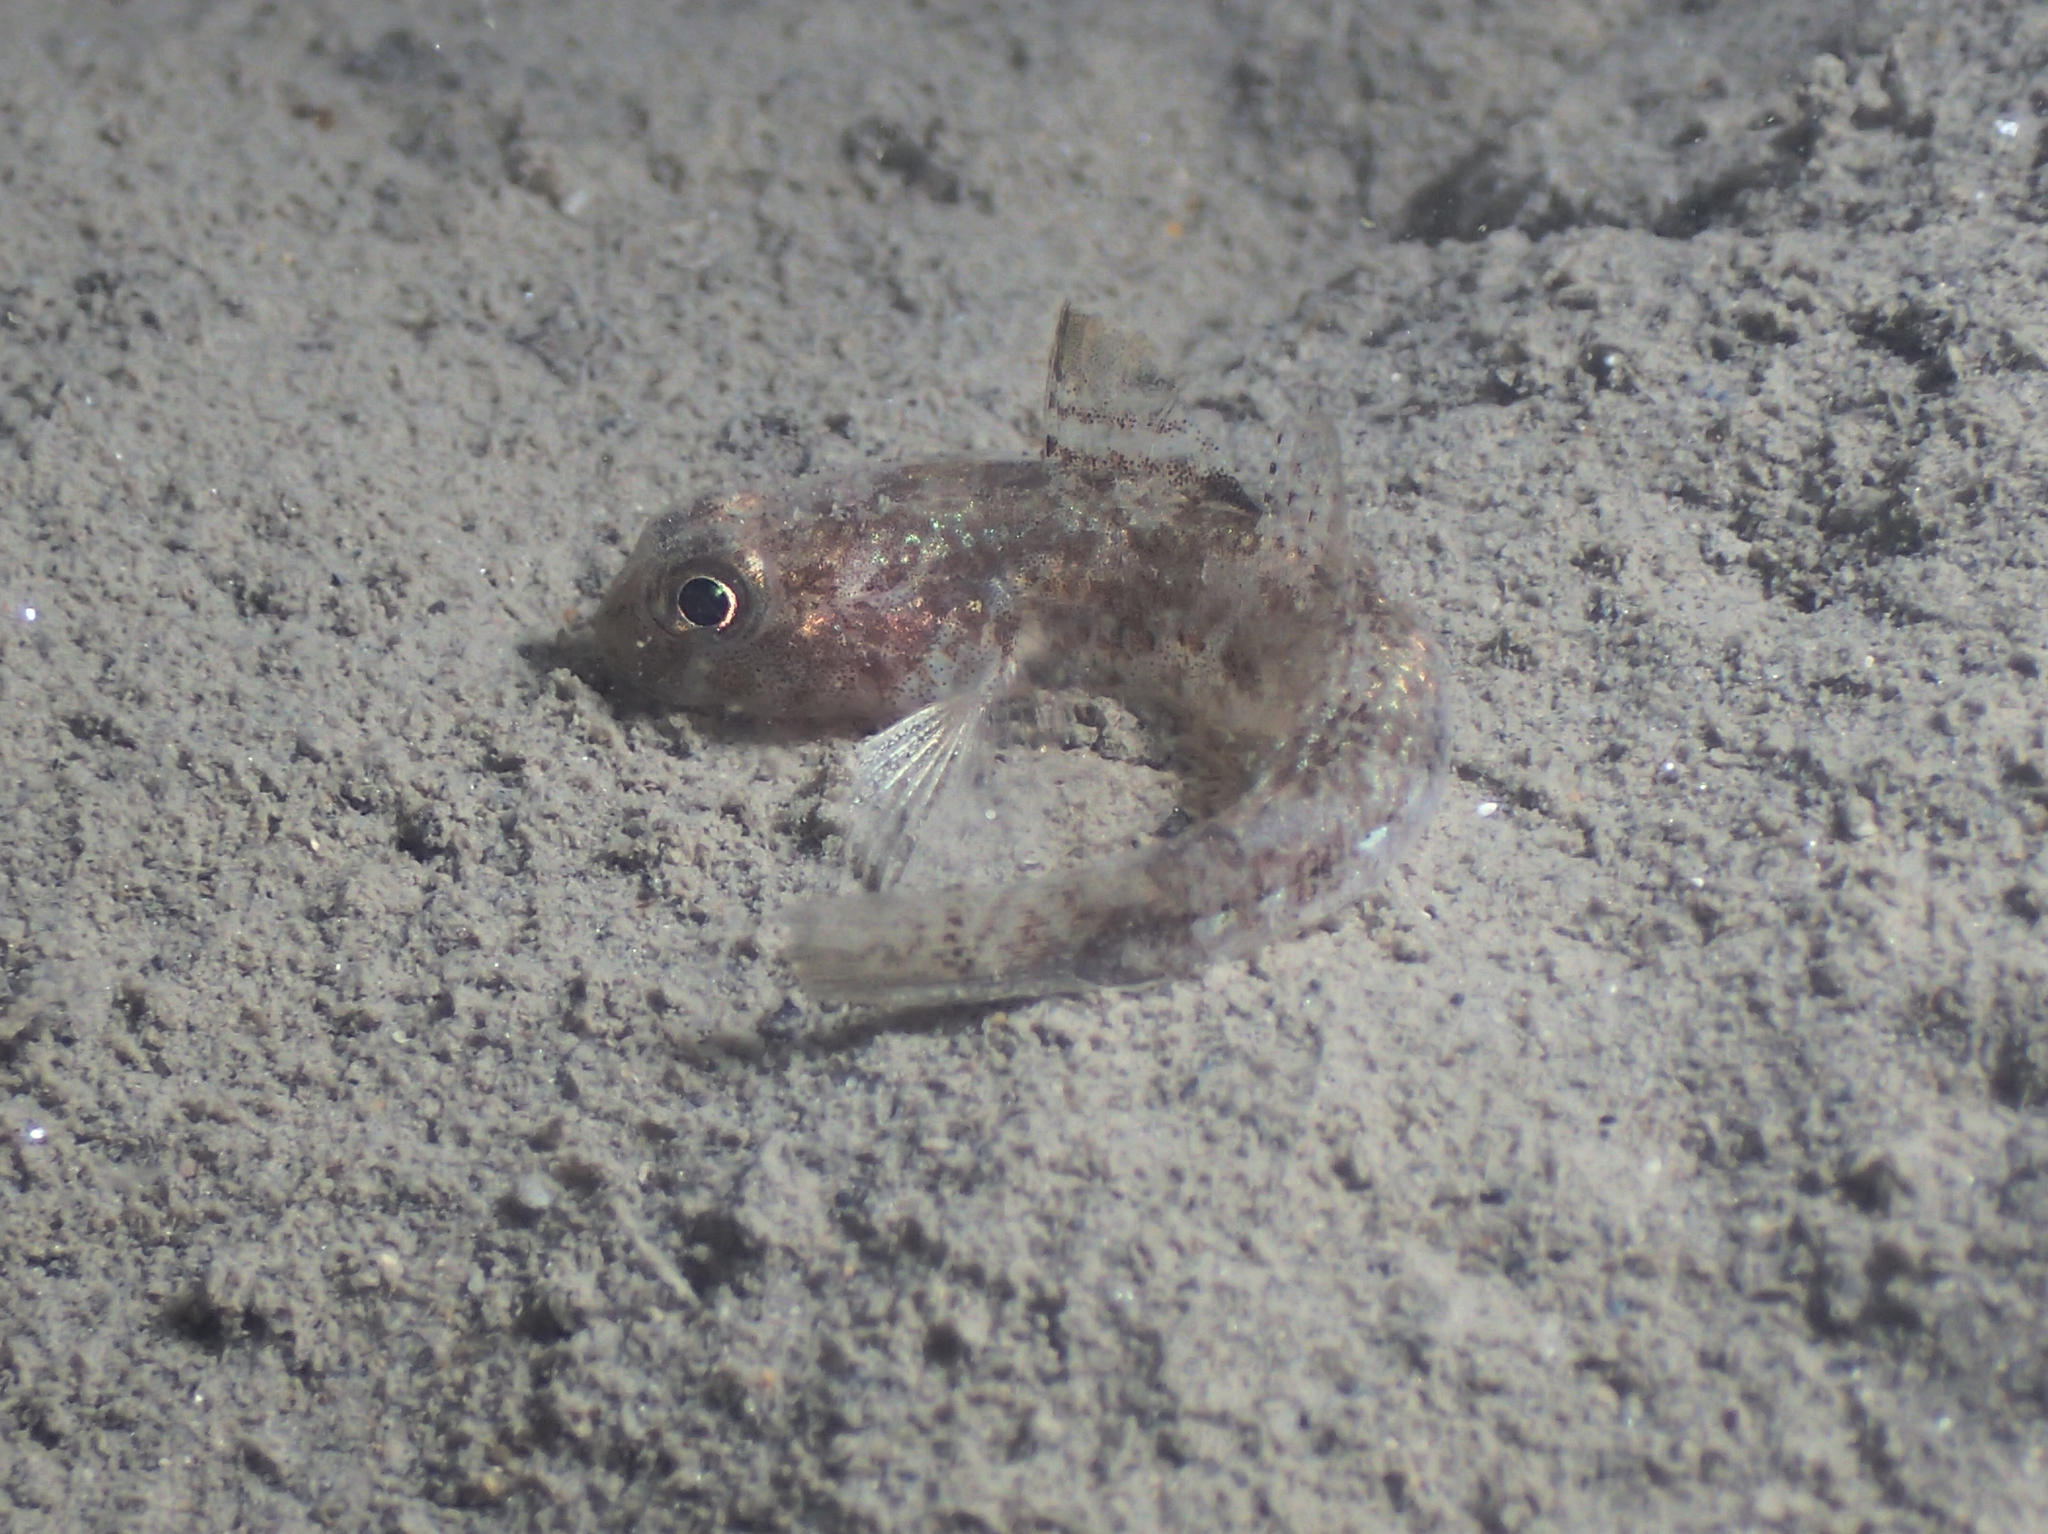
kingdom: Animalia
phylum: Chordata
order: Perciformes
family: Gobiidae
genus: Gobius
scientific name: Gobius niger
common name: Black goby
